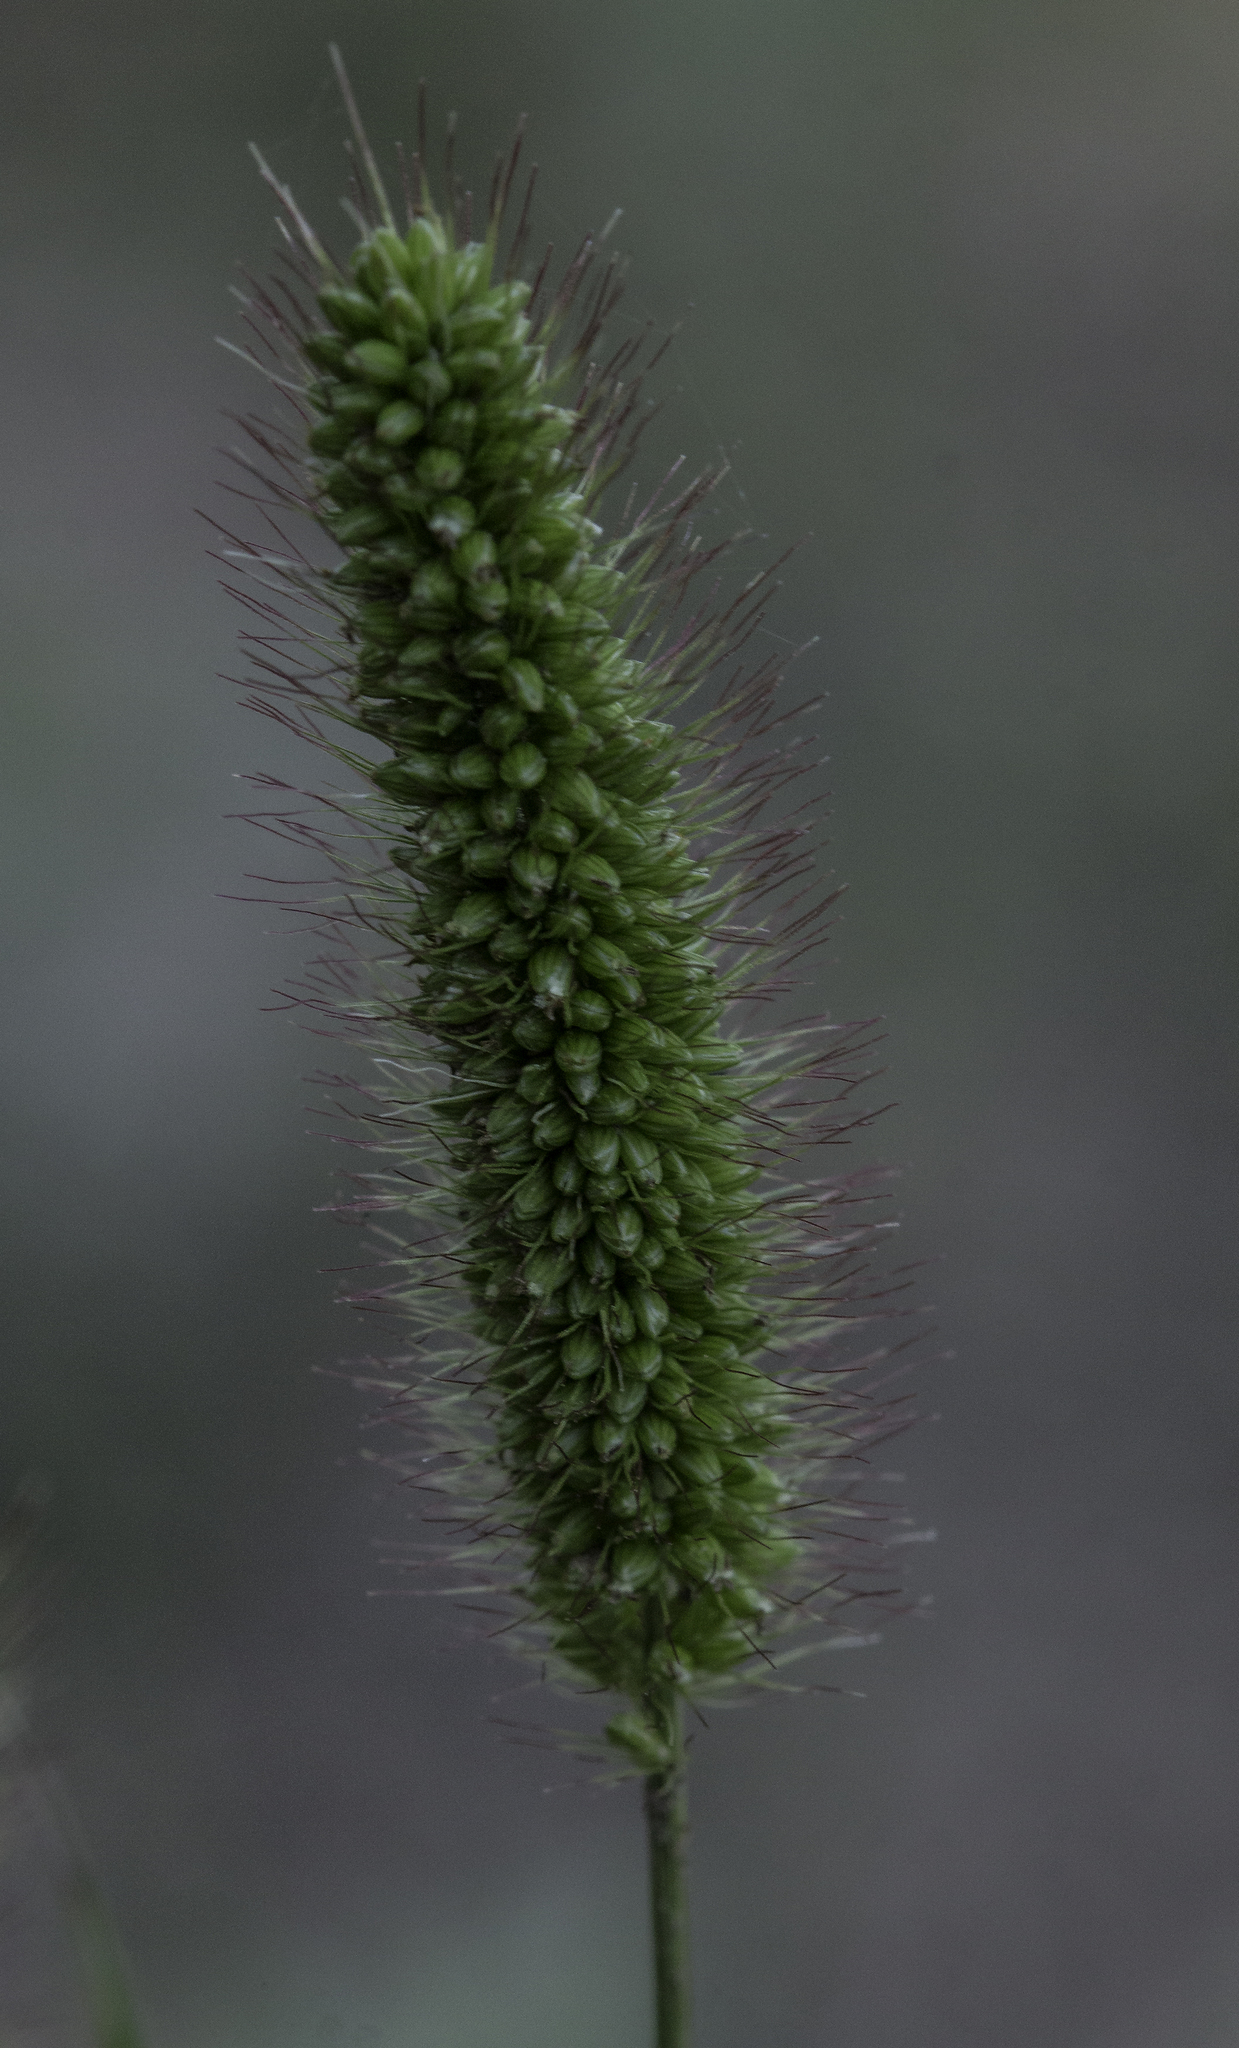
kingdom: Plantae
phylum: Tracheophyta
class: Liliopsida
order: Poales
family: Poaceae
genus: Setaria
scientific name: Setaria viridis
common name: Green bristlegrass
